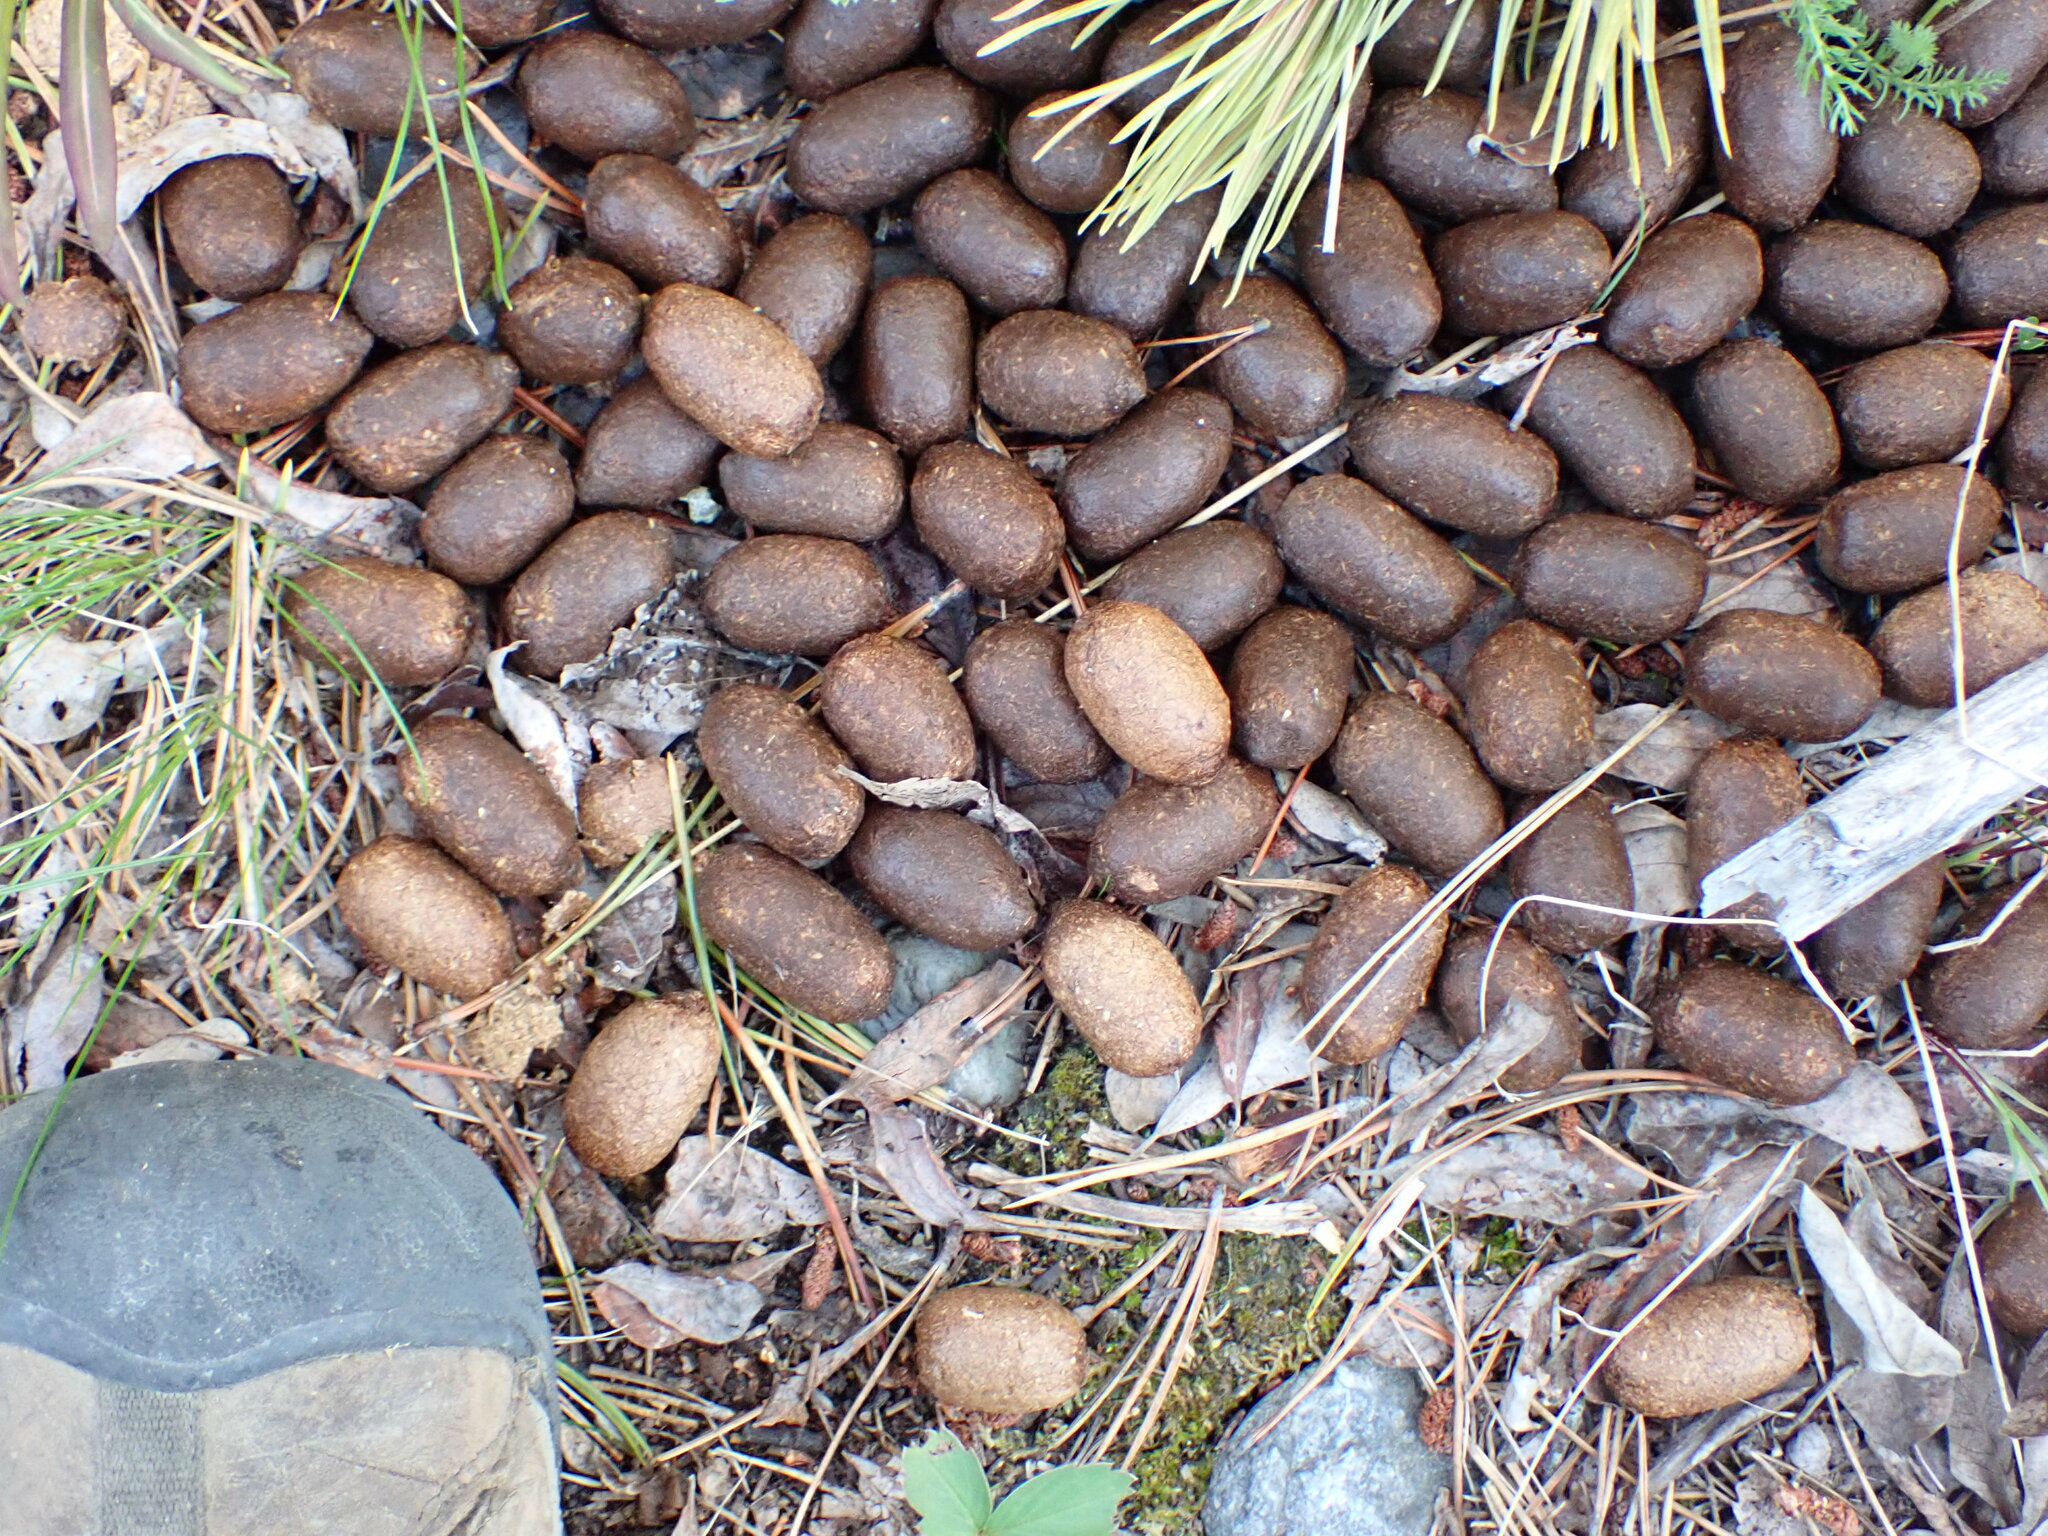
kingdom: Animalia
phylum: Chordata
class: Mammalia
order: Artiodactyla
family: Cervidae
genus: Alces
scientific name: Alces alces
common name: Moose
